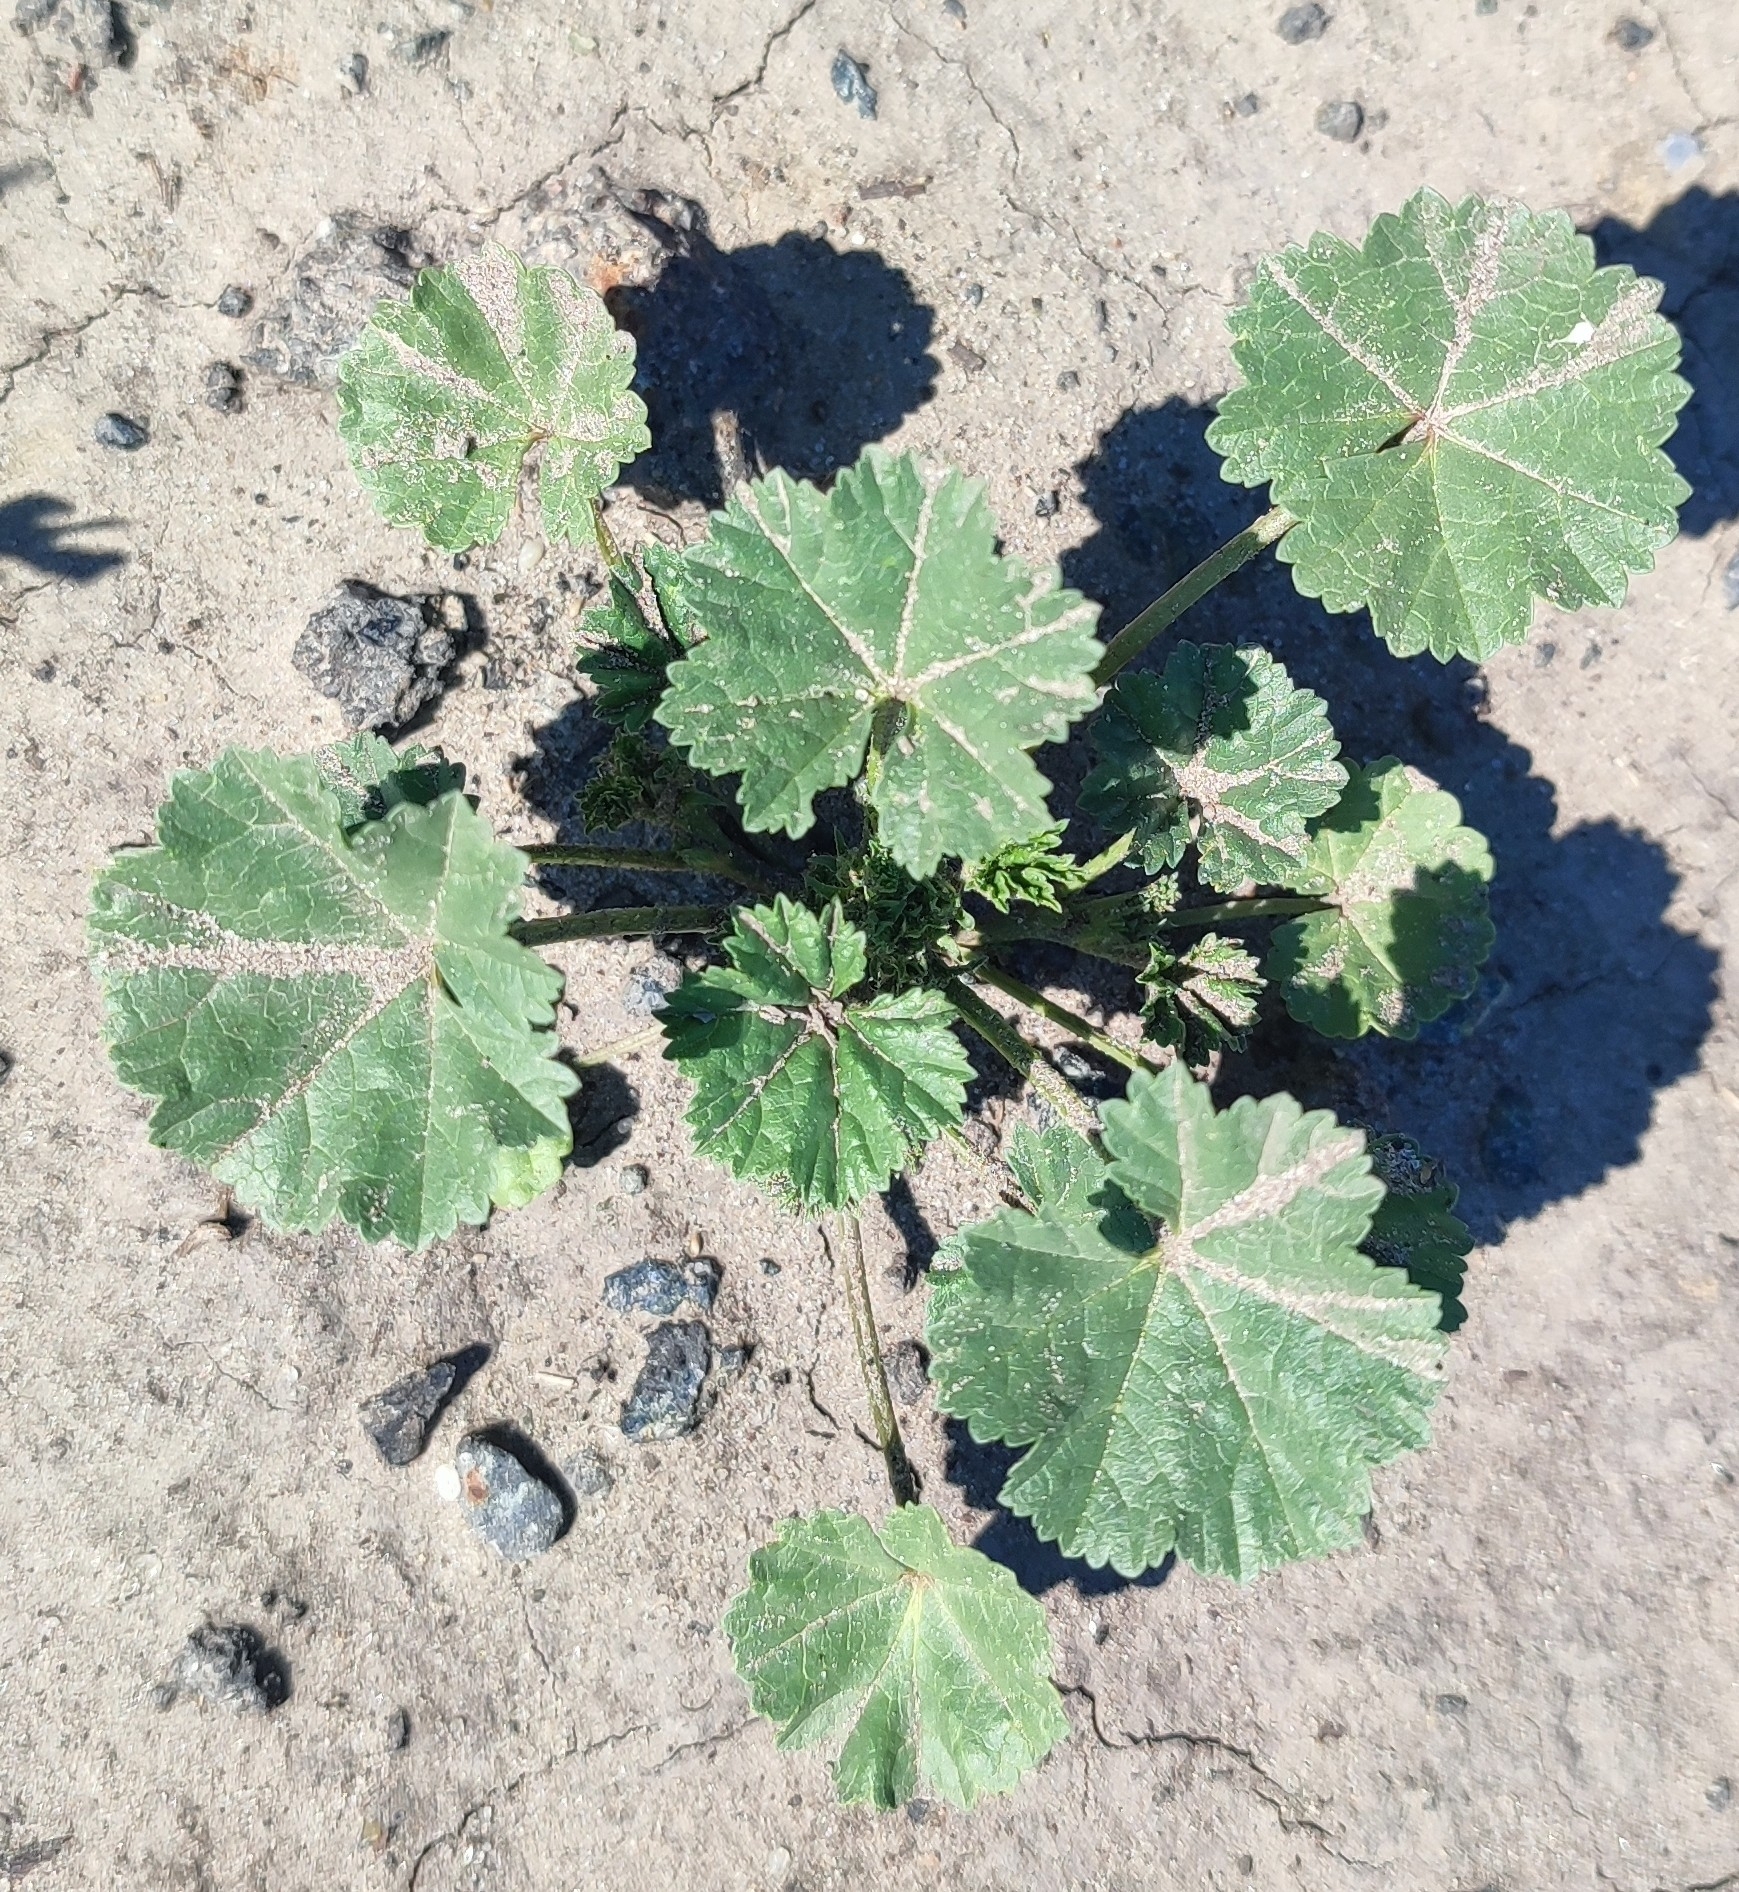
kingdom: Plantae
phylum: Tracheophyta
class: Magnoliopsida
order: Malvales
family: Malvaceae
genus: Malva
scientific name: Malva pusilla
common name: Small mallow
